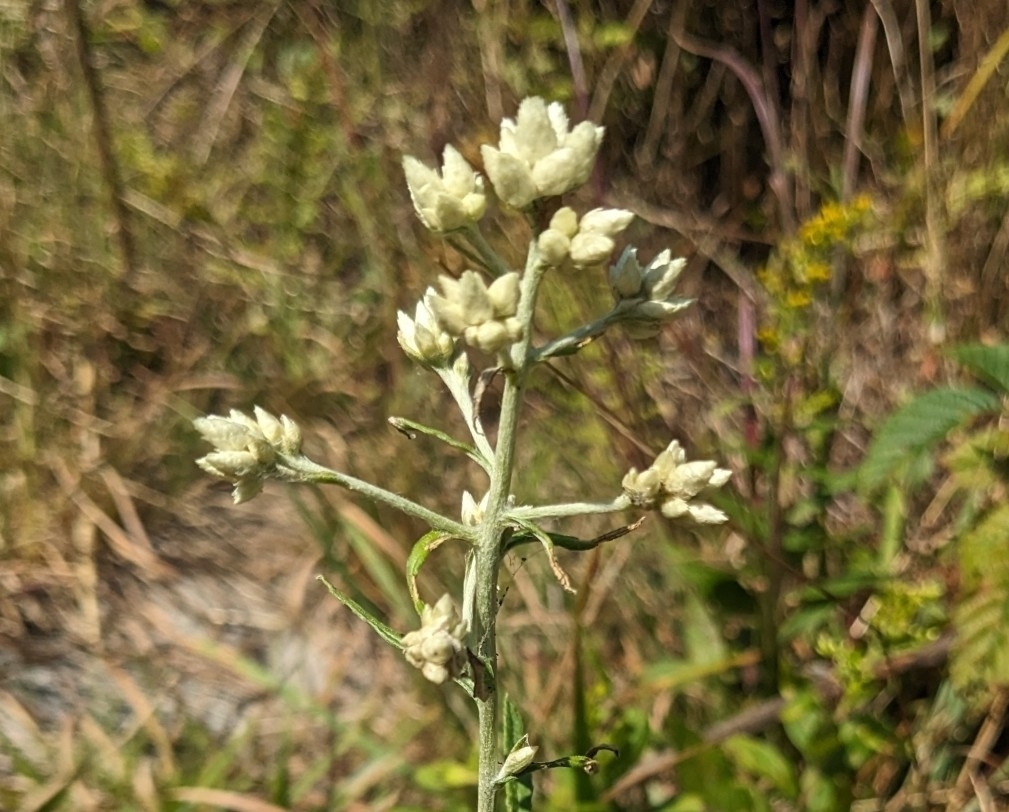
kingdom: Plantae
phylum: Tracheophyta
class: Magnoliopsida
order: Asterales
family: Asteraceae
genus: Pseudognaphalium
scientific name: Pseudognaphalium obtusifolium
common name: Eastern rabbit-tobacco
